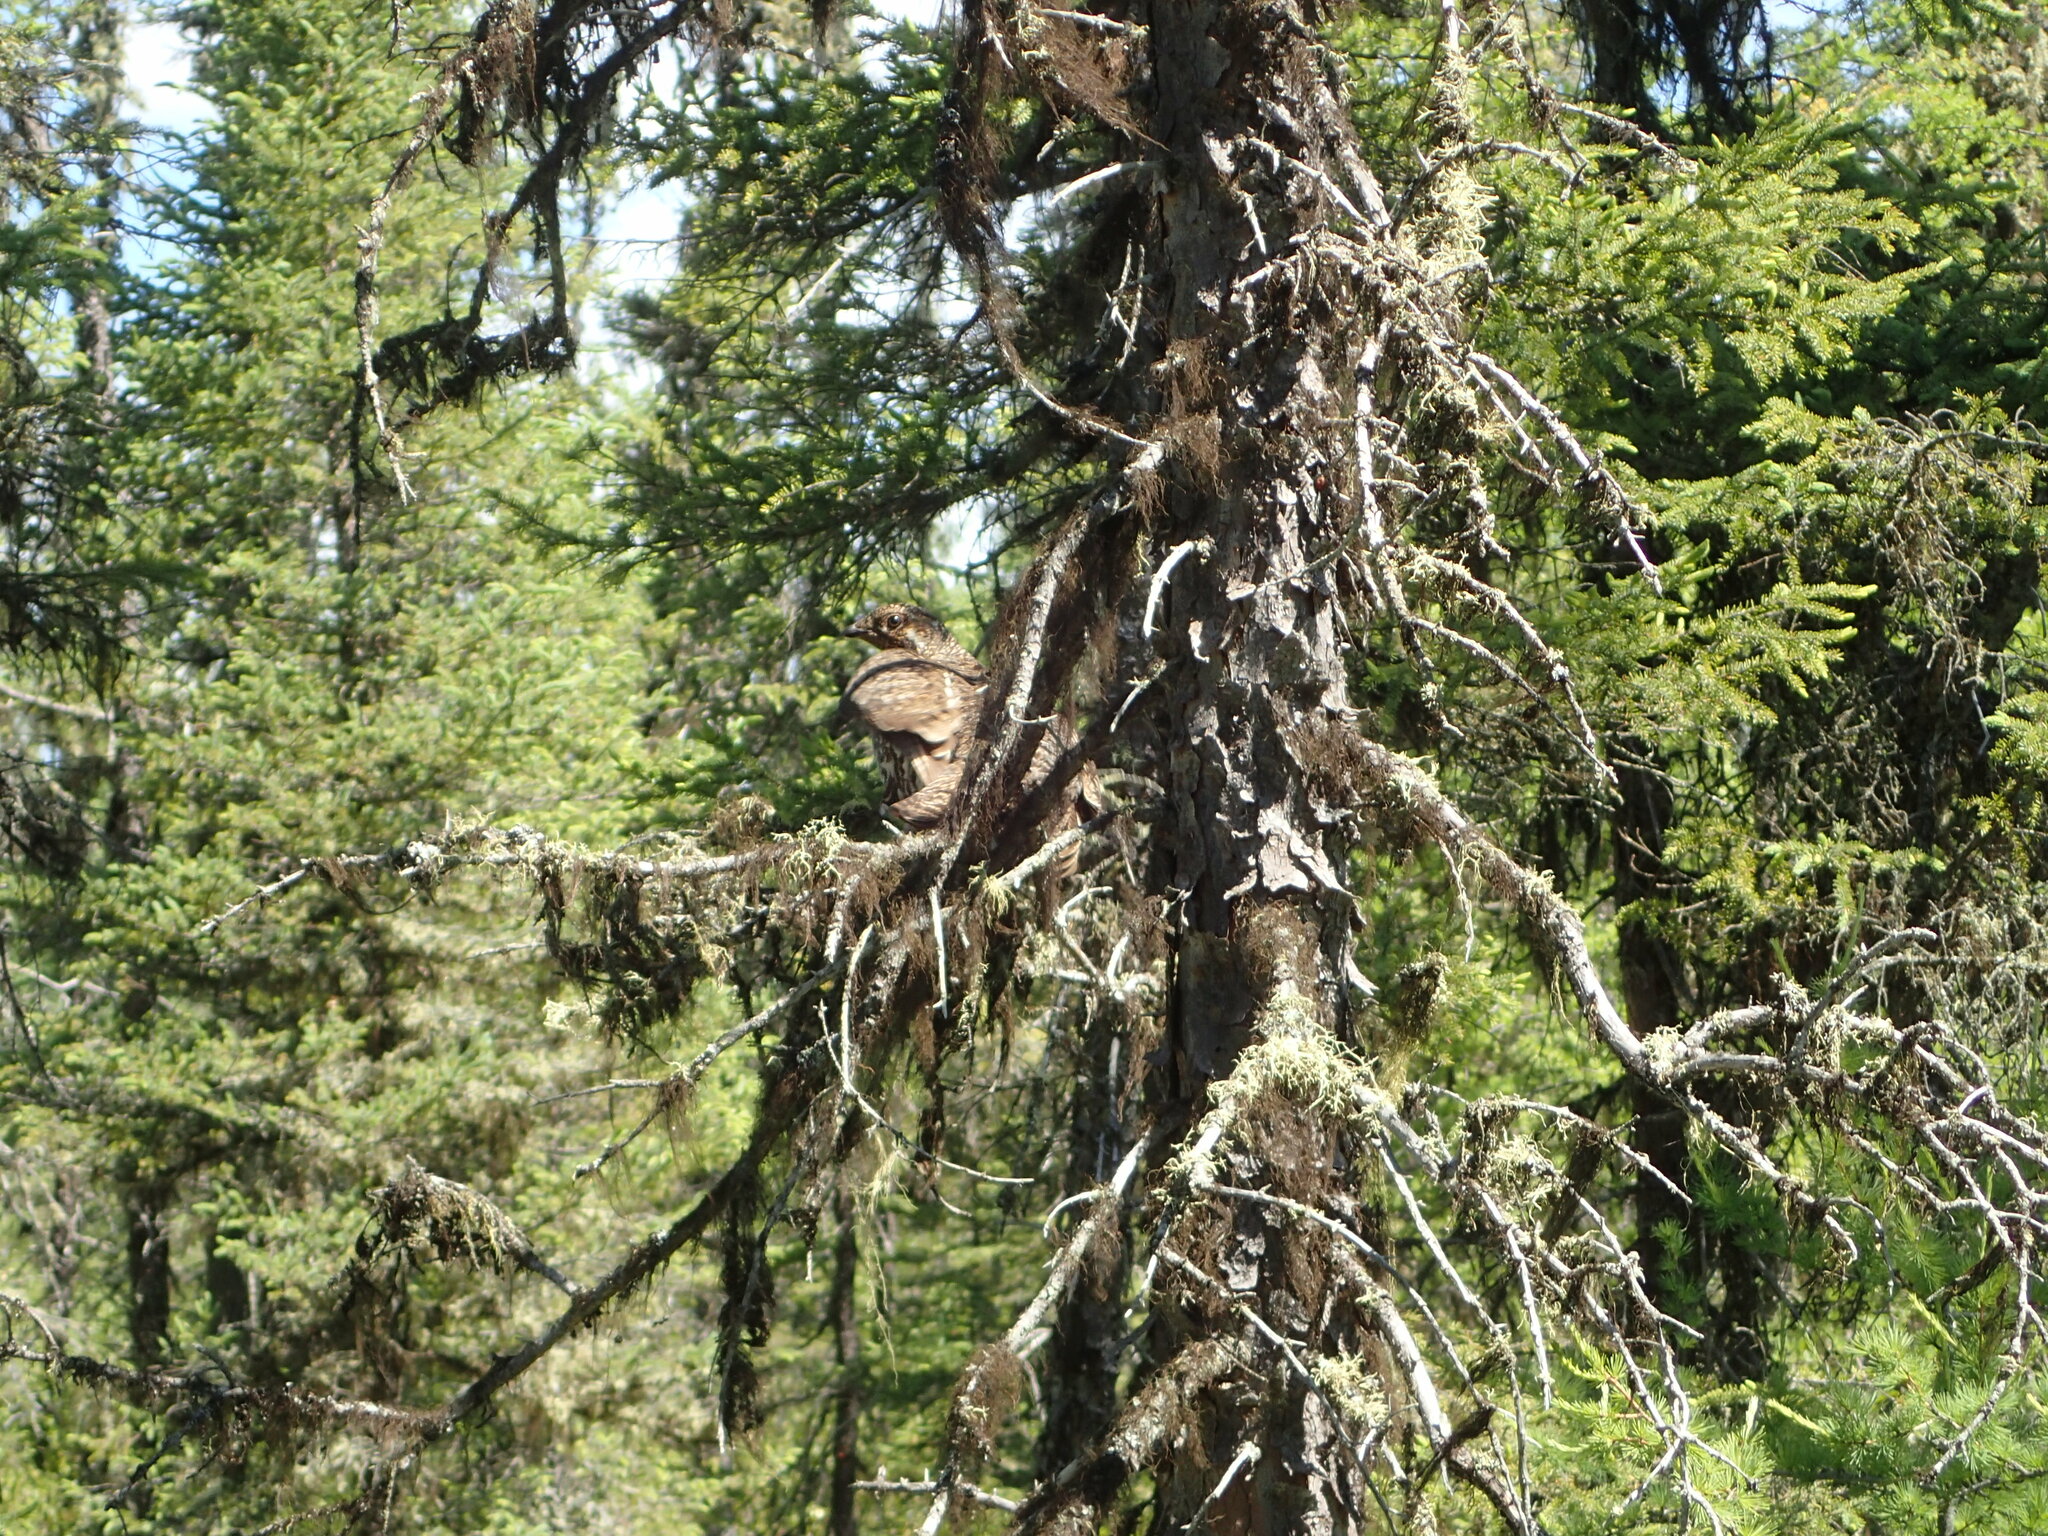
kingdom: Animalia
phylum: Chordata
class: Aves
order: Galliformes
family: Phasianidae
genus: Canachites
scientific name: Canachites canadensis
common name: Spruce grouse
